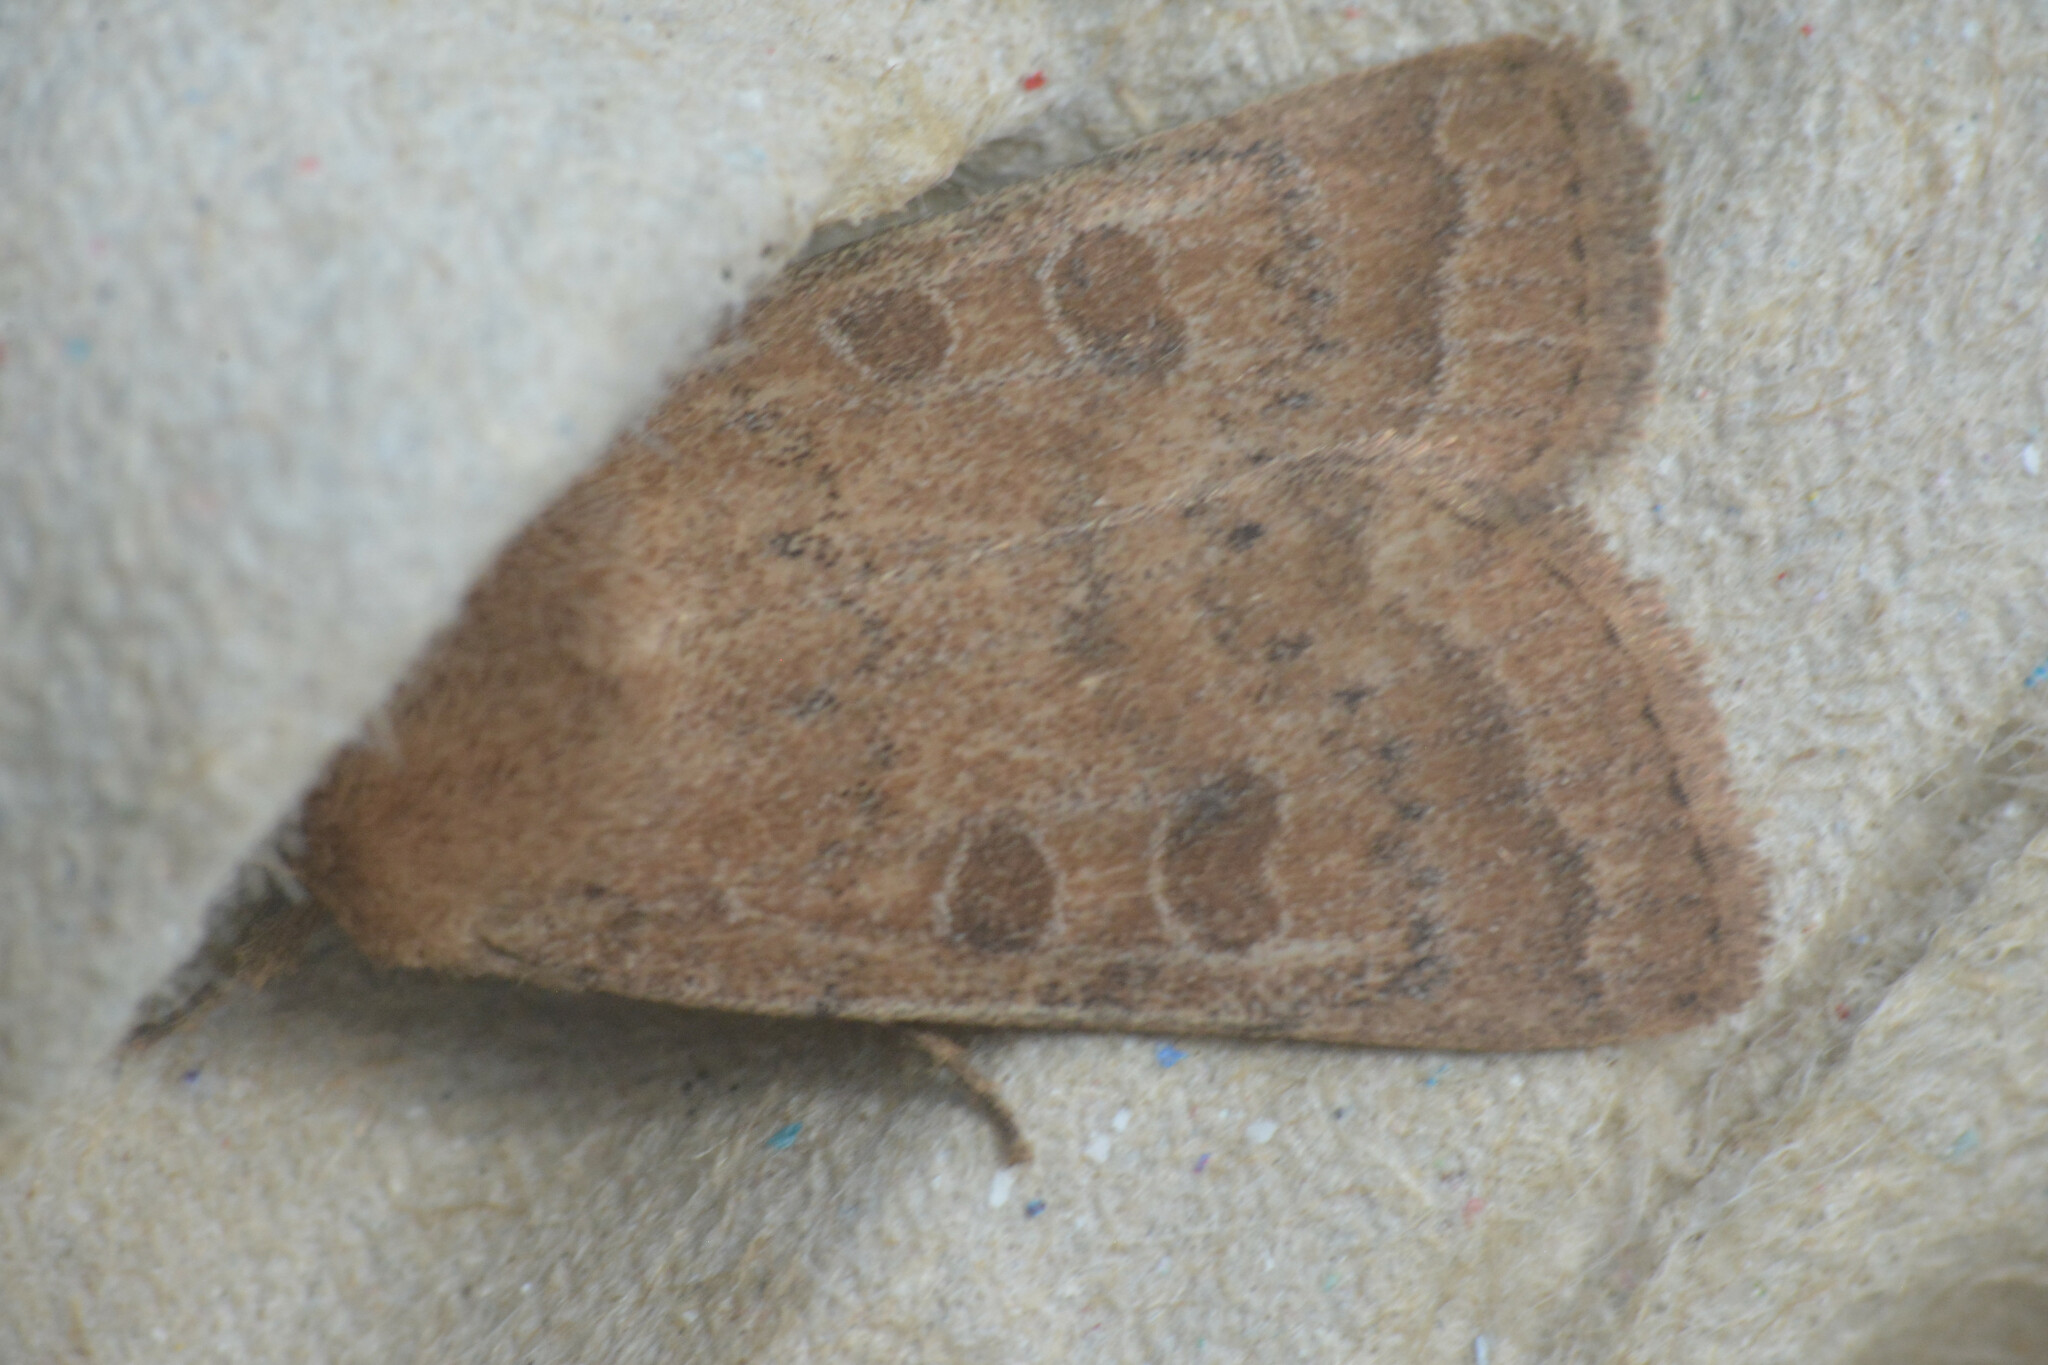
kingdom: Animalia
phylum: Arthropoda
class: Insecta
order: Lepidoptera
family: Noctuidae
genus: Hoplodrina
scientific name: Hoplodrina octogenaria
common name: Uncertain
